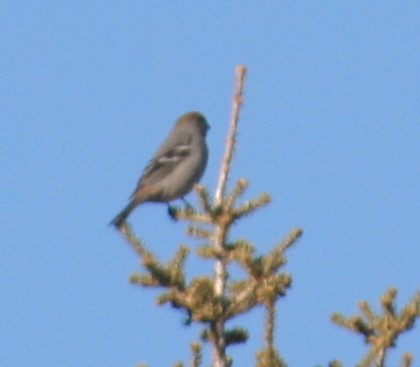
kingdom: Animalia
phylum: Chordata
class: Aves
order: Passeriformes
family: Fringillidae
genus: Pinicola
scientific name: Pinicola enucleator
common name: Pine grosbeak
